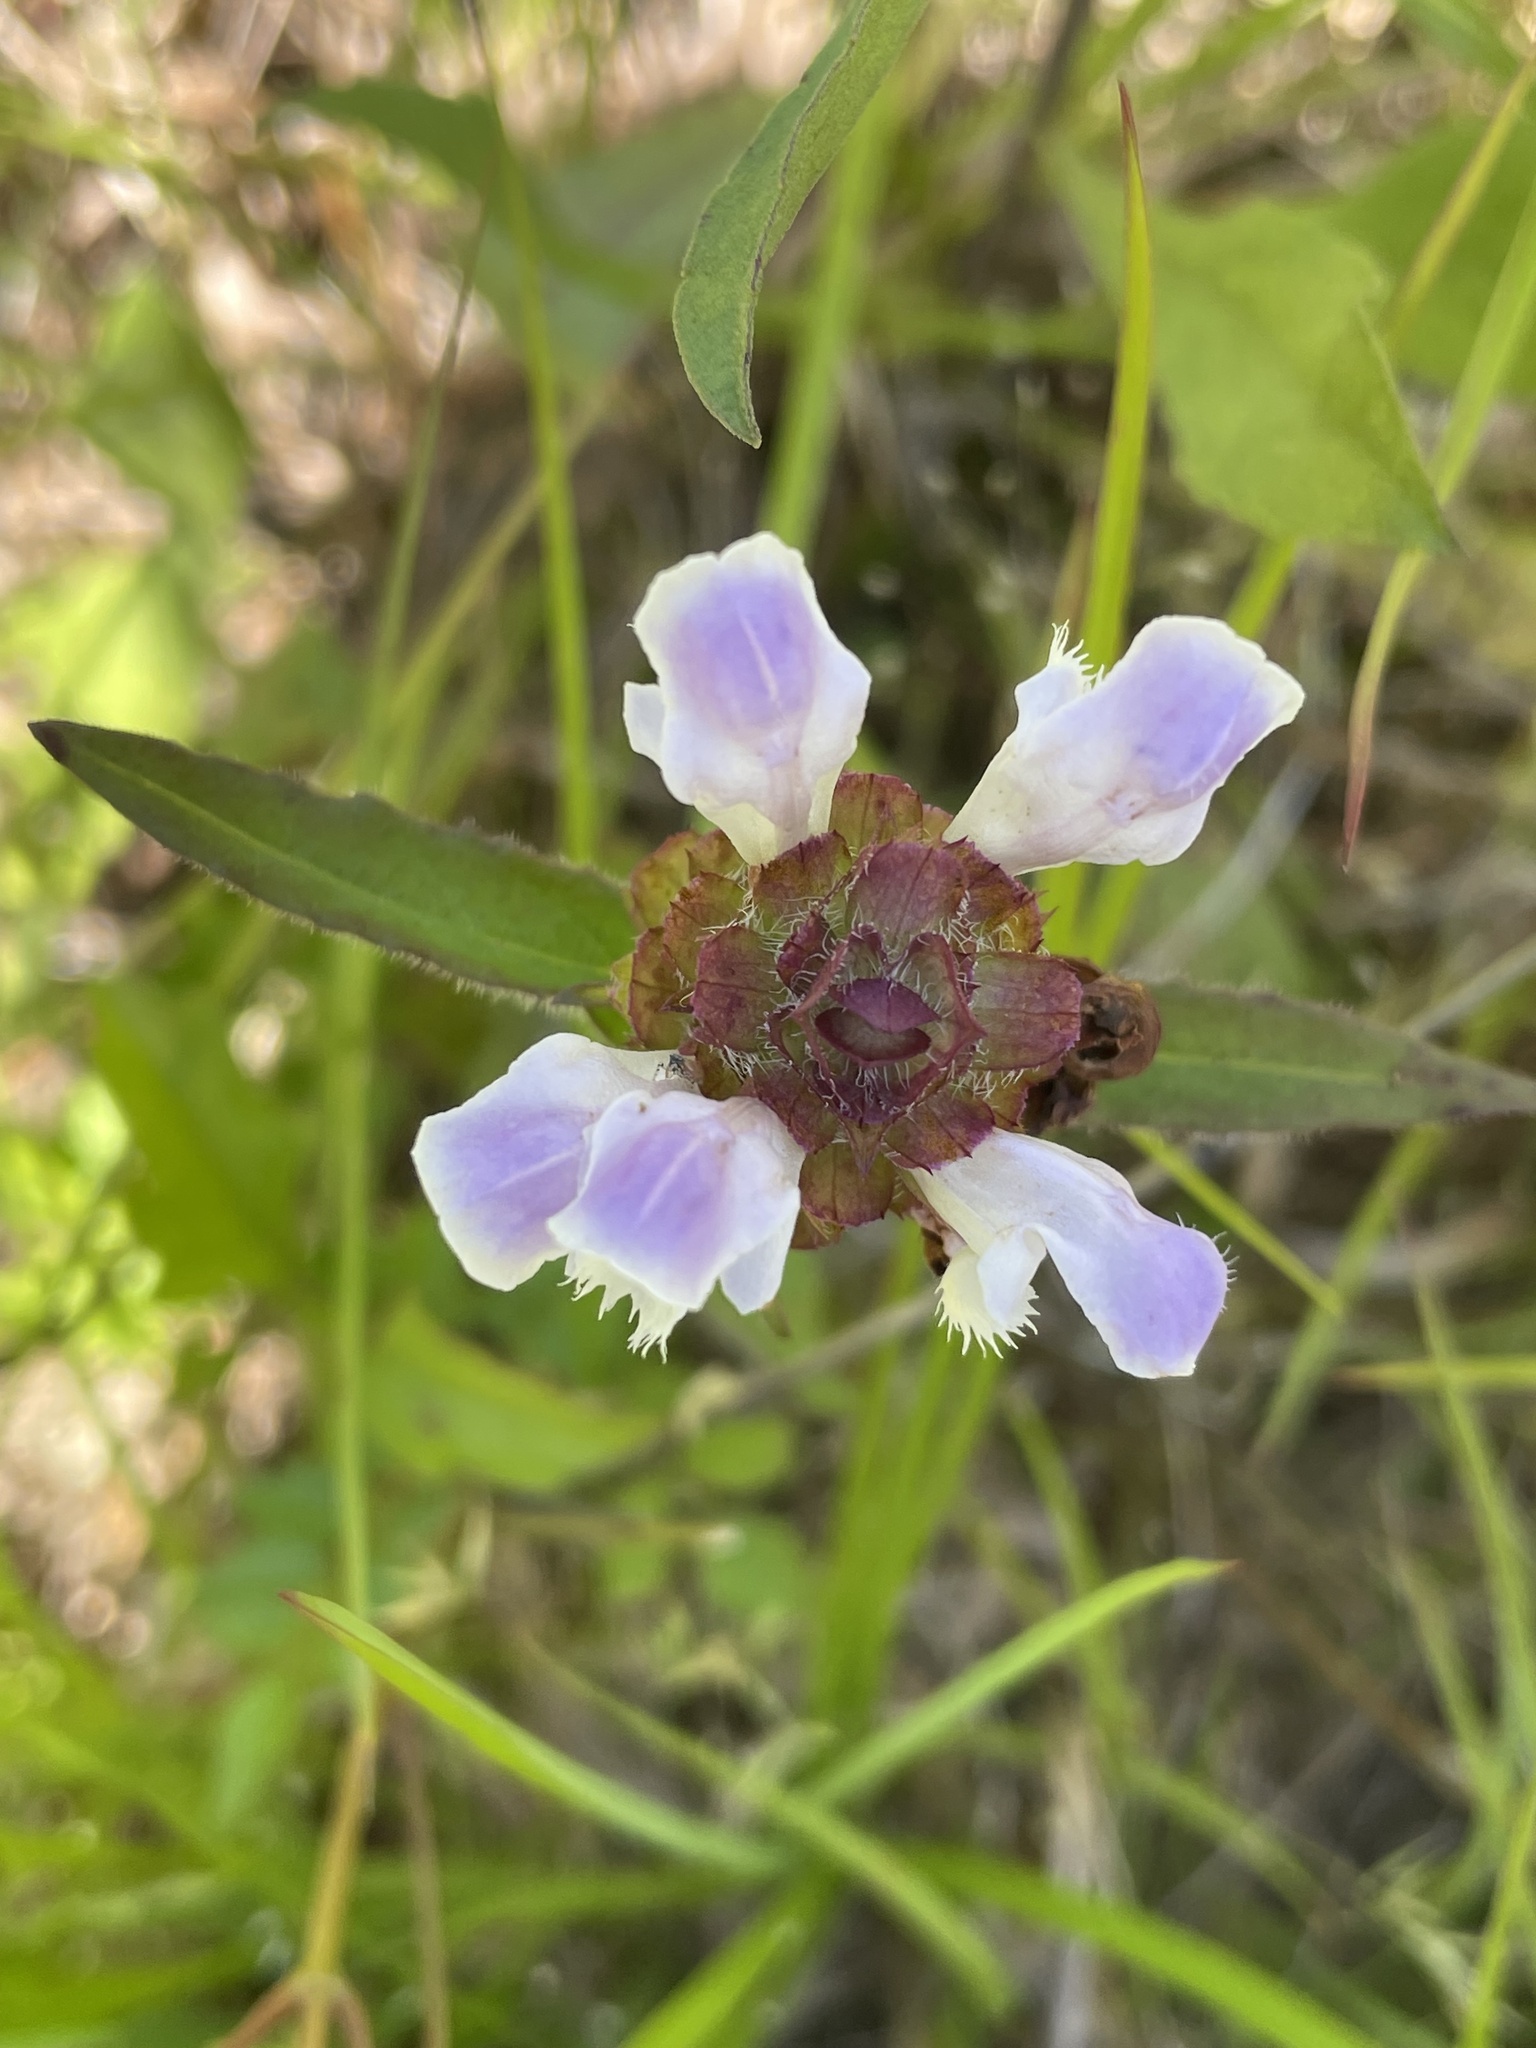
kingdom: Plantae
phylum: Tracheophyta
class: Magnoliopsida
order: Lamiales
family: Lamiaceae
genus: Prunella
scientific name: Prunella vulgaris
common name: Heal-all
